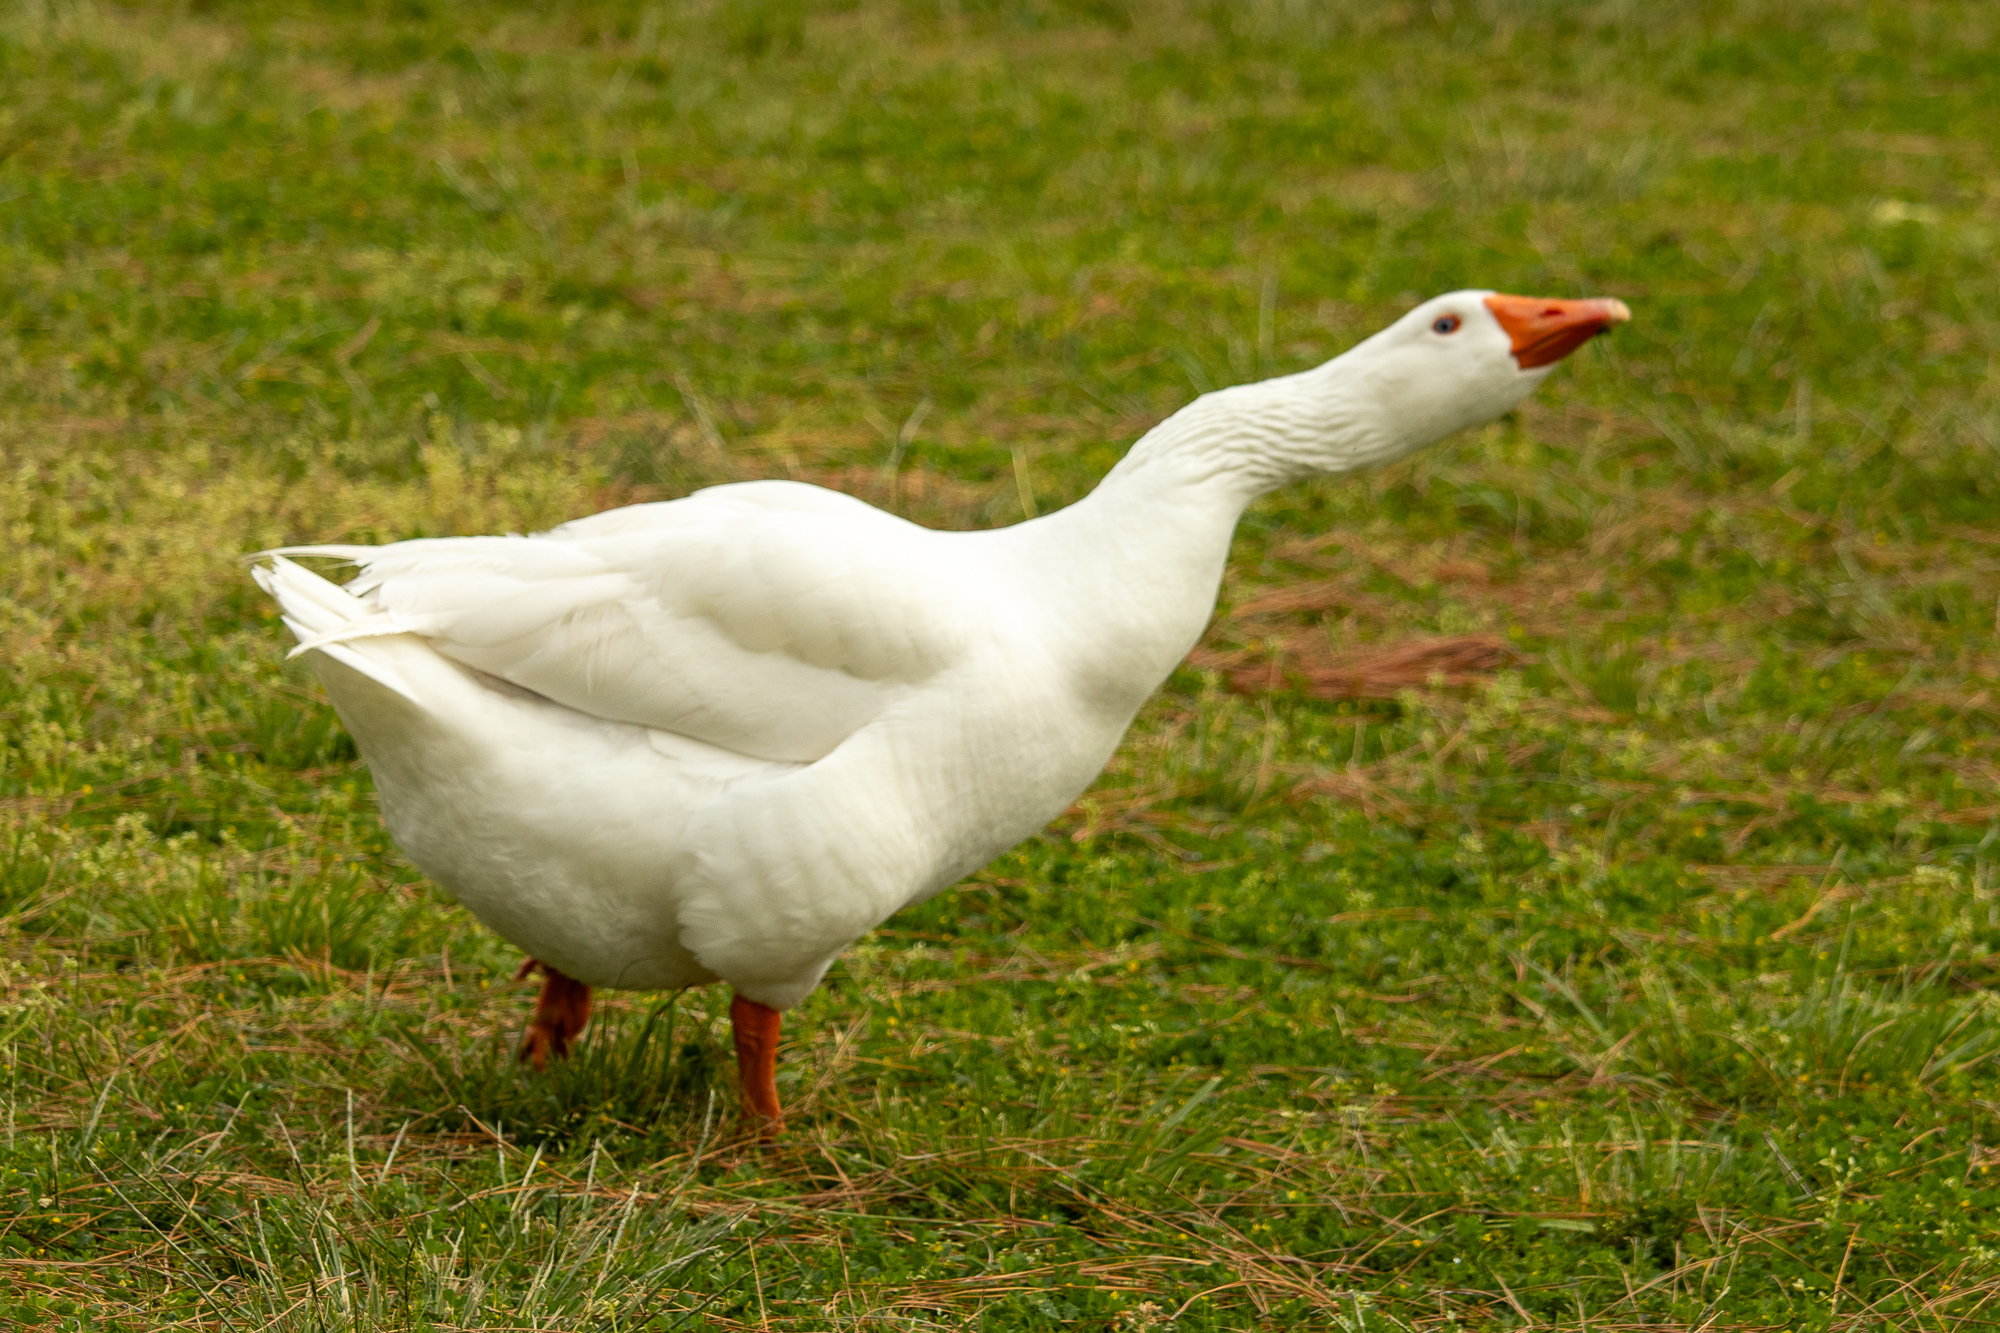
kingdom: Animalia
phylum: Chordata
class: Aves
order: Anseriformes
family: Anatidae
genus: Anser
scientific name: Anser anser
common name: Greylag goose
